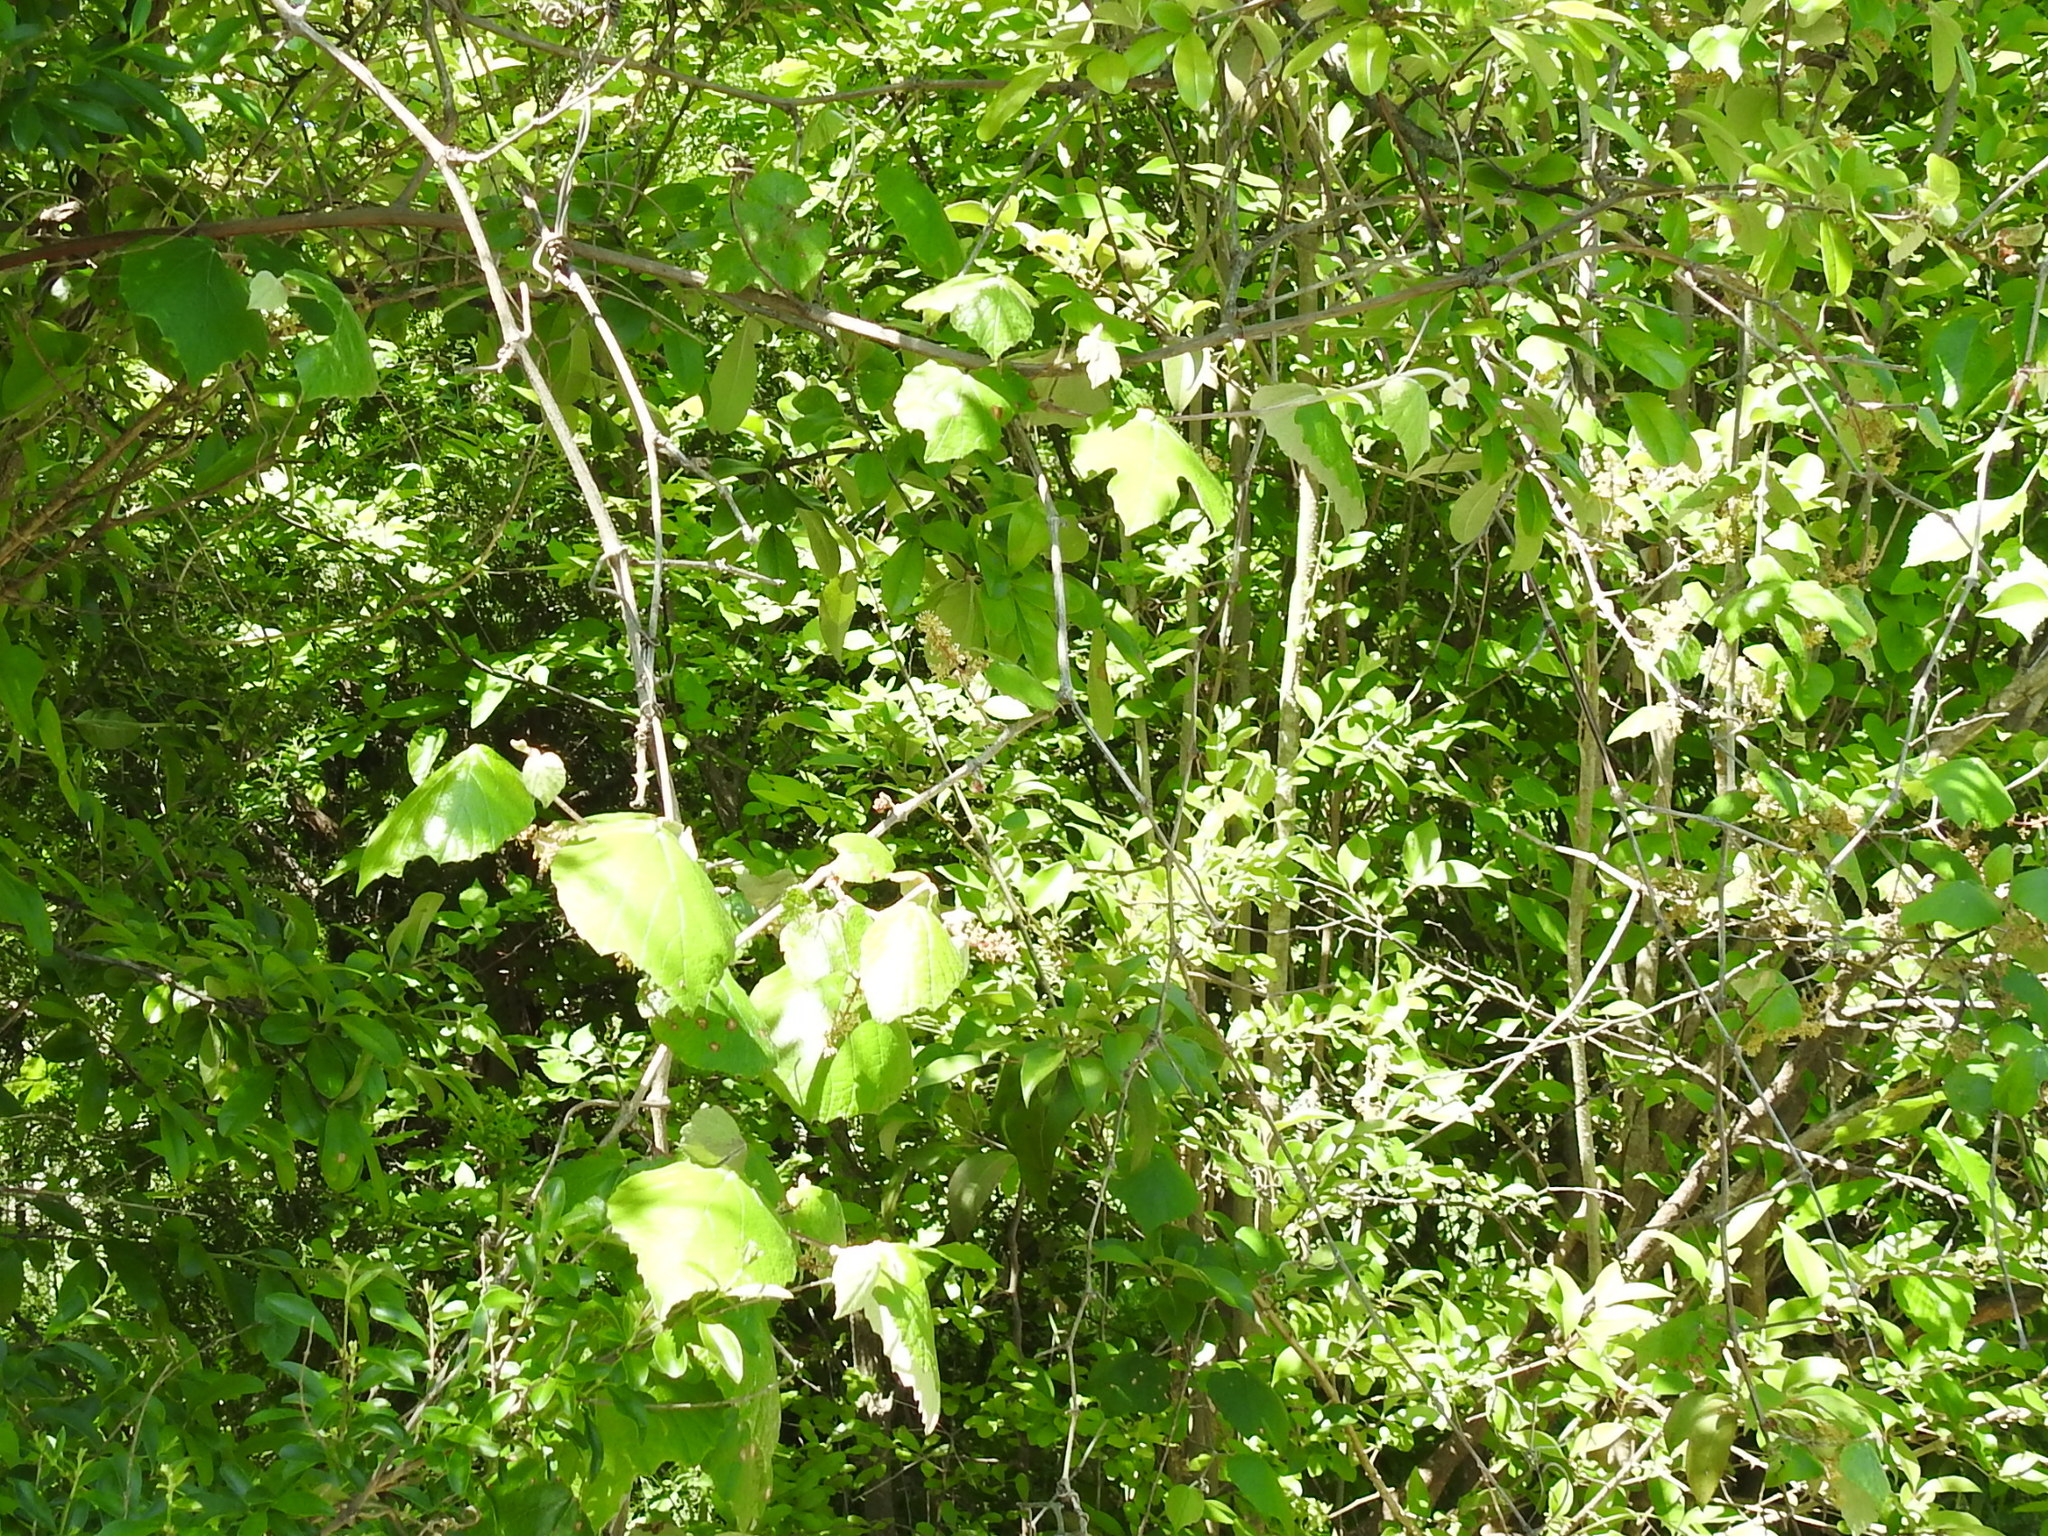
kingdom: Plantae
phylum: Tracheophyta
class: Magnoliopsida
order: Vitales
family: Vitaceae
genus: Vitis
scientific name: Vitis mustangensis
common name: Mustang grape
